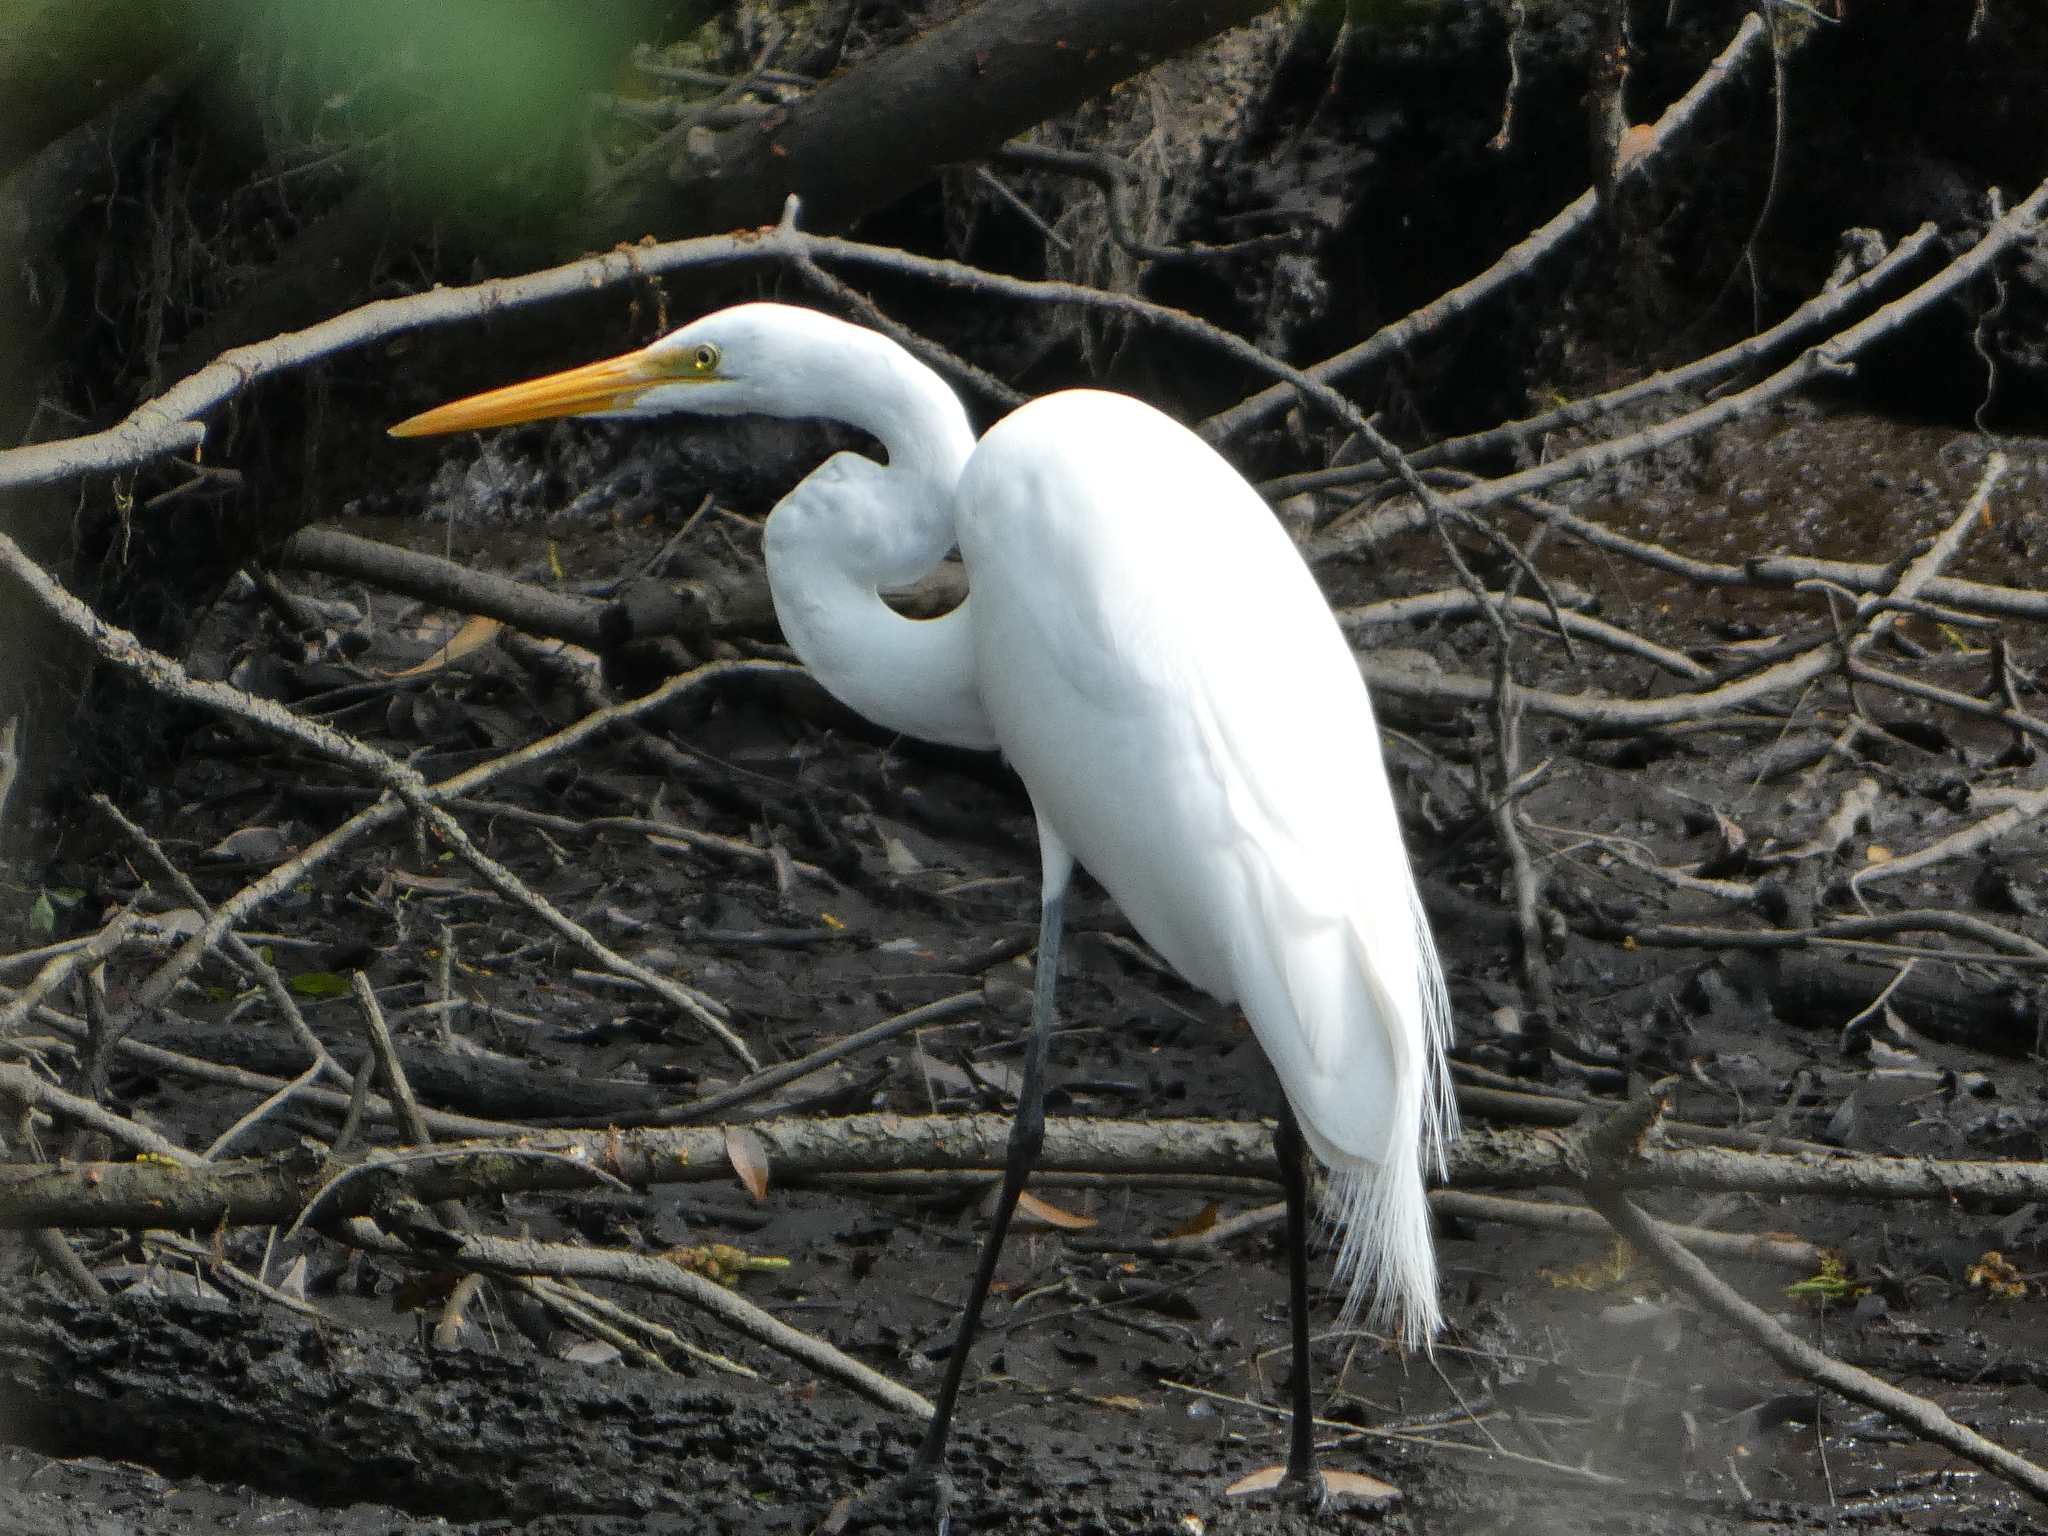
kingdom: Animalia
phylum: Chordata
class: Aves
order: Pelecaniformes
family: Ardeidae
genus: Ardea
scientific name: Ardea alba
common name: Great egret
